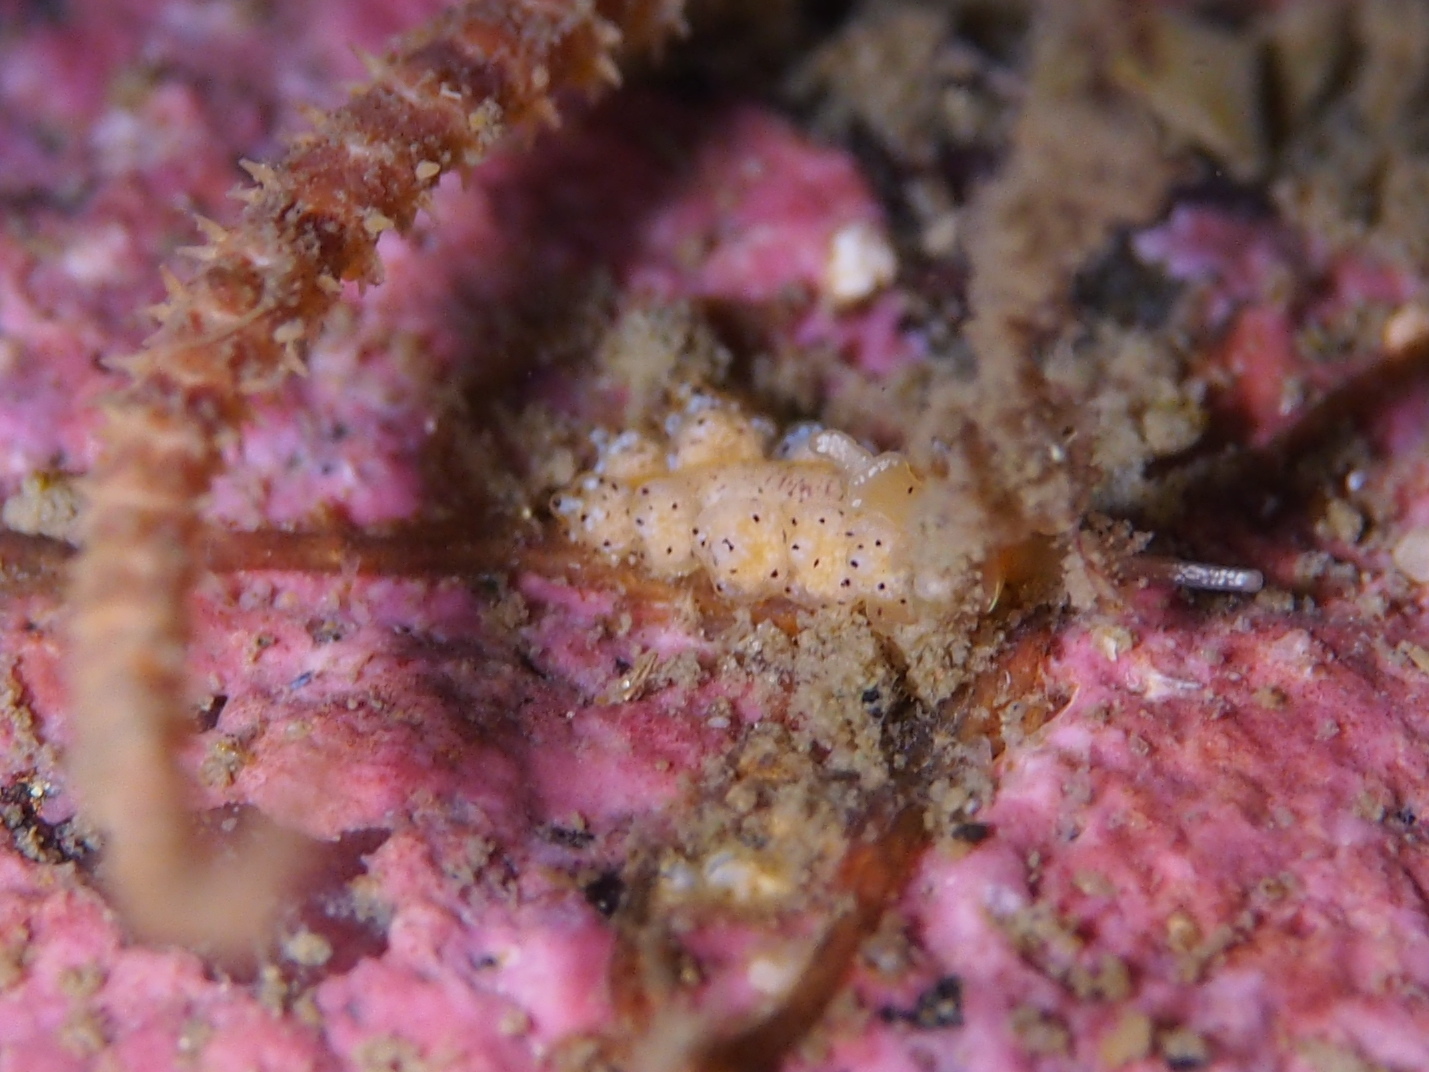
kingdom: Animalia
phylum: Mollusca
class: Gastropoda
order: Nudibranchia
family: Dotidae
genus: Doto
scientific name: Doto dunnei
